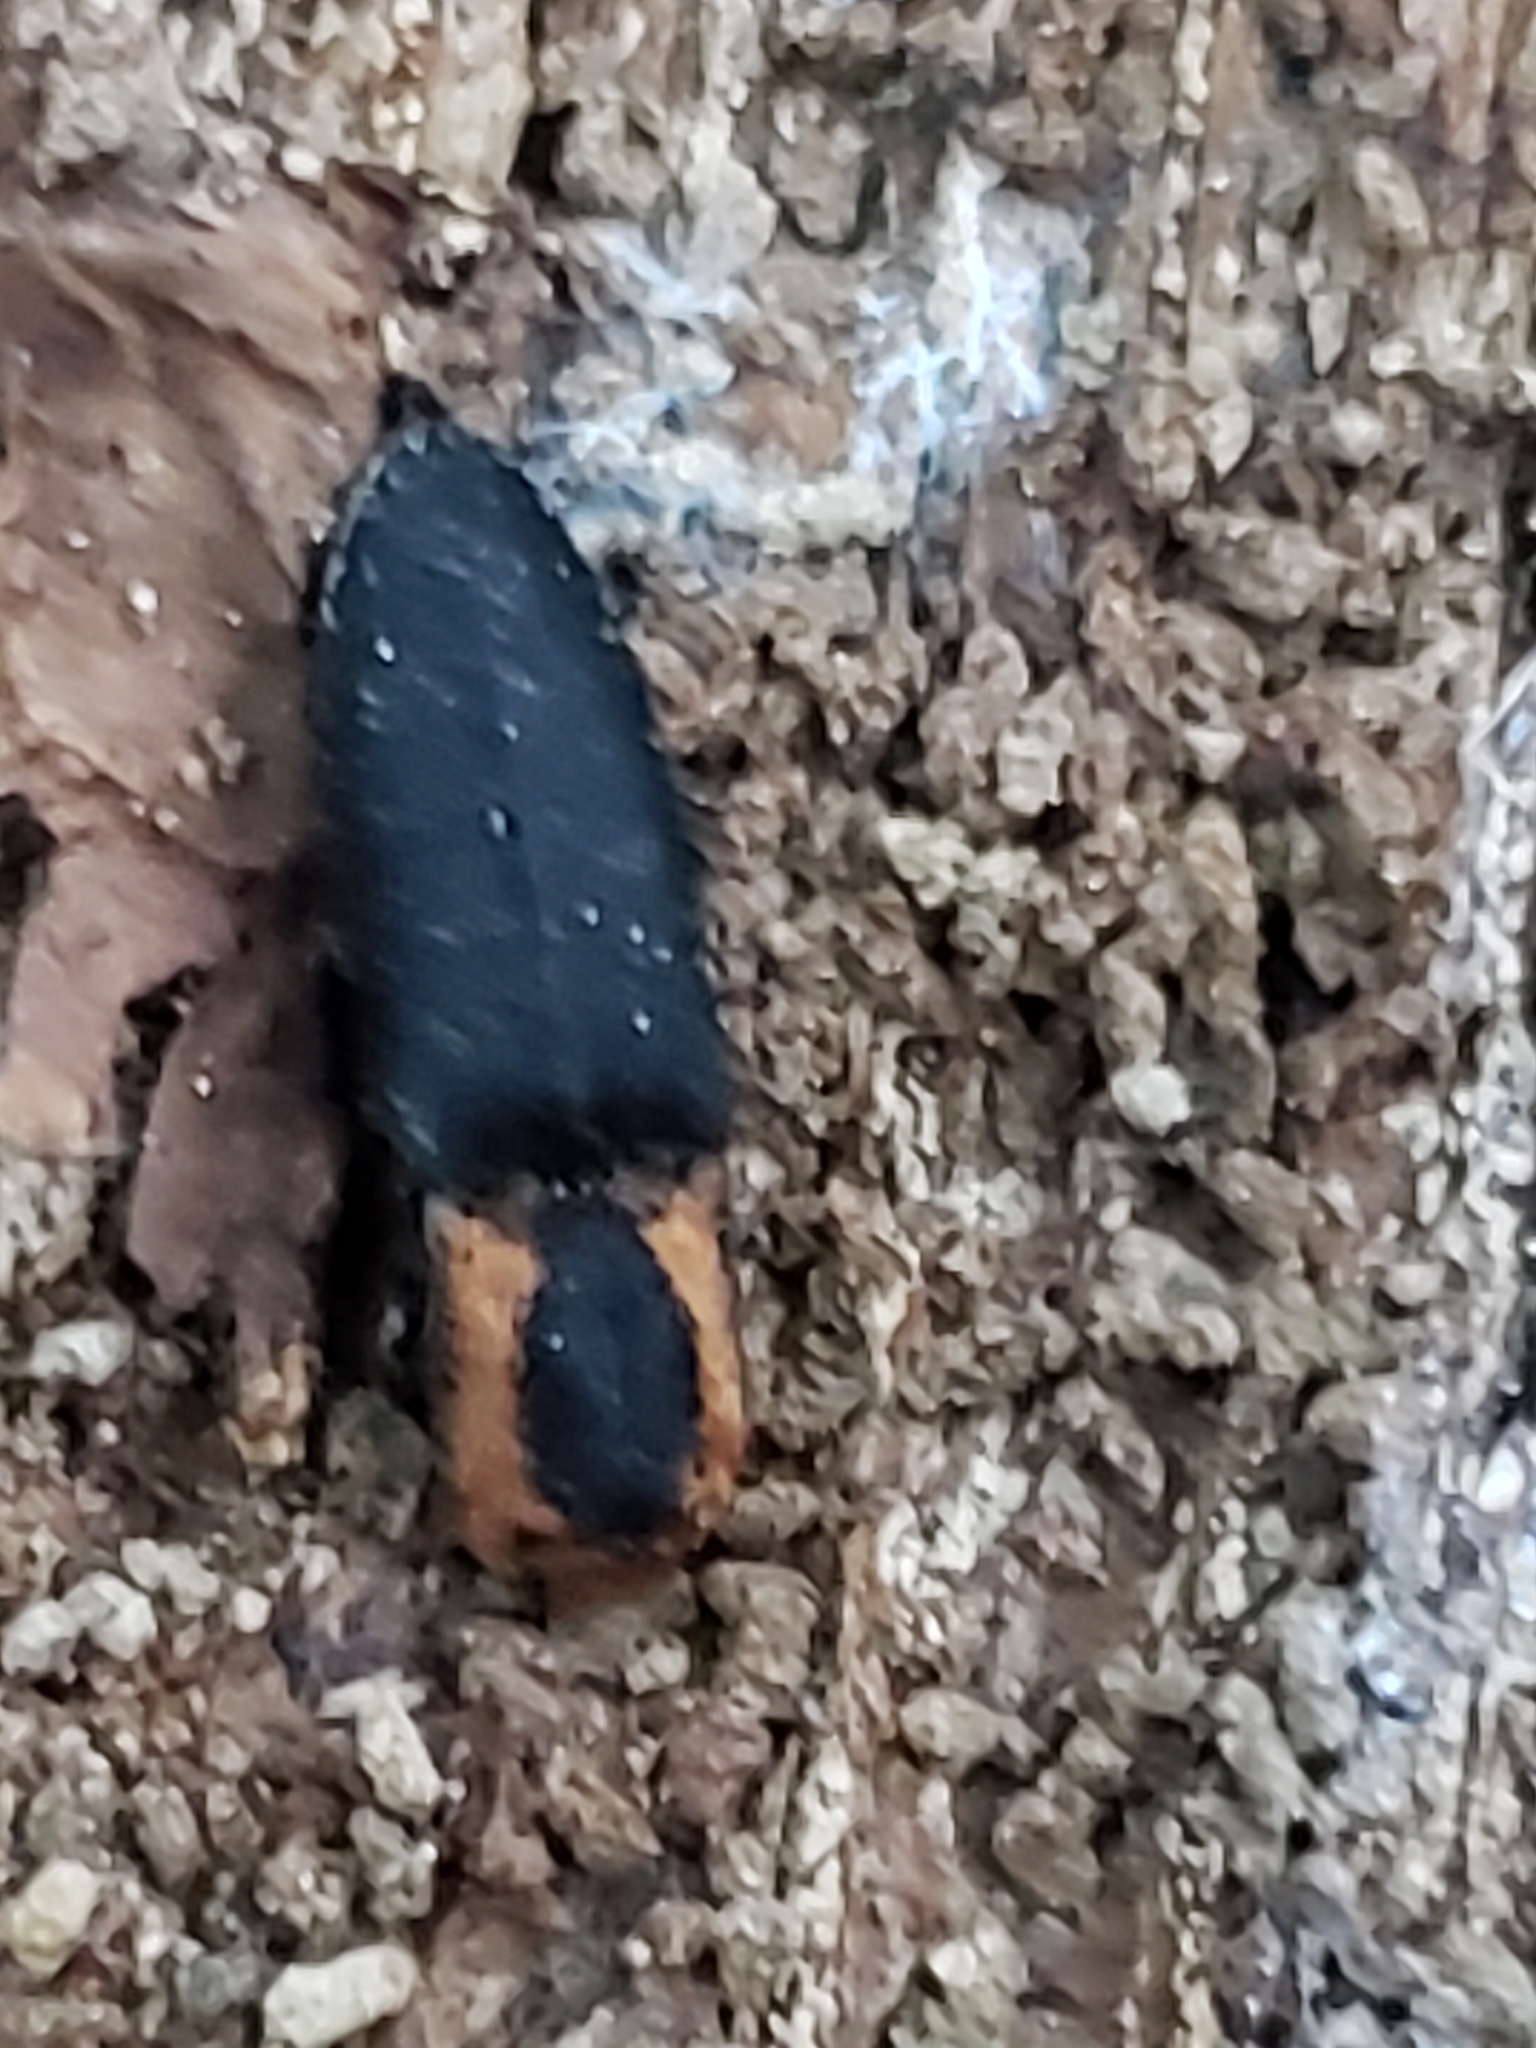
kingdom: Animalia
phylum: Arthropoda
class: Insecta
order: Coleoptera
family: Elateridae
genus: Lacon
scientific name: Lacon discoideus
